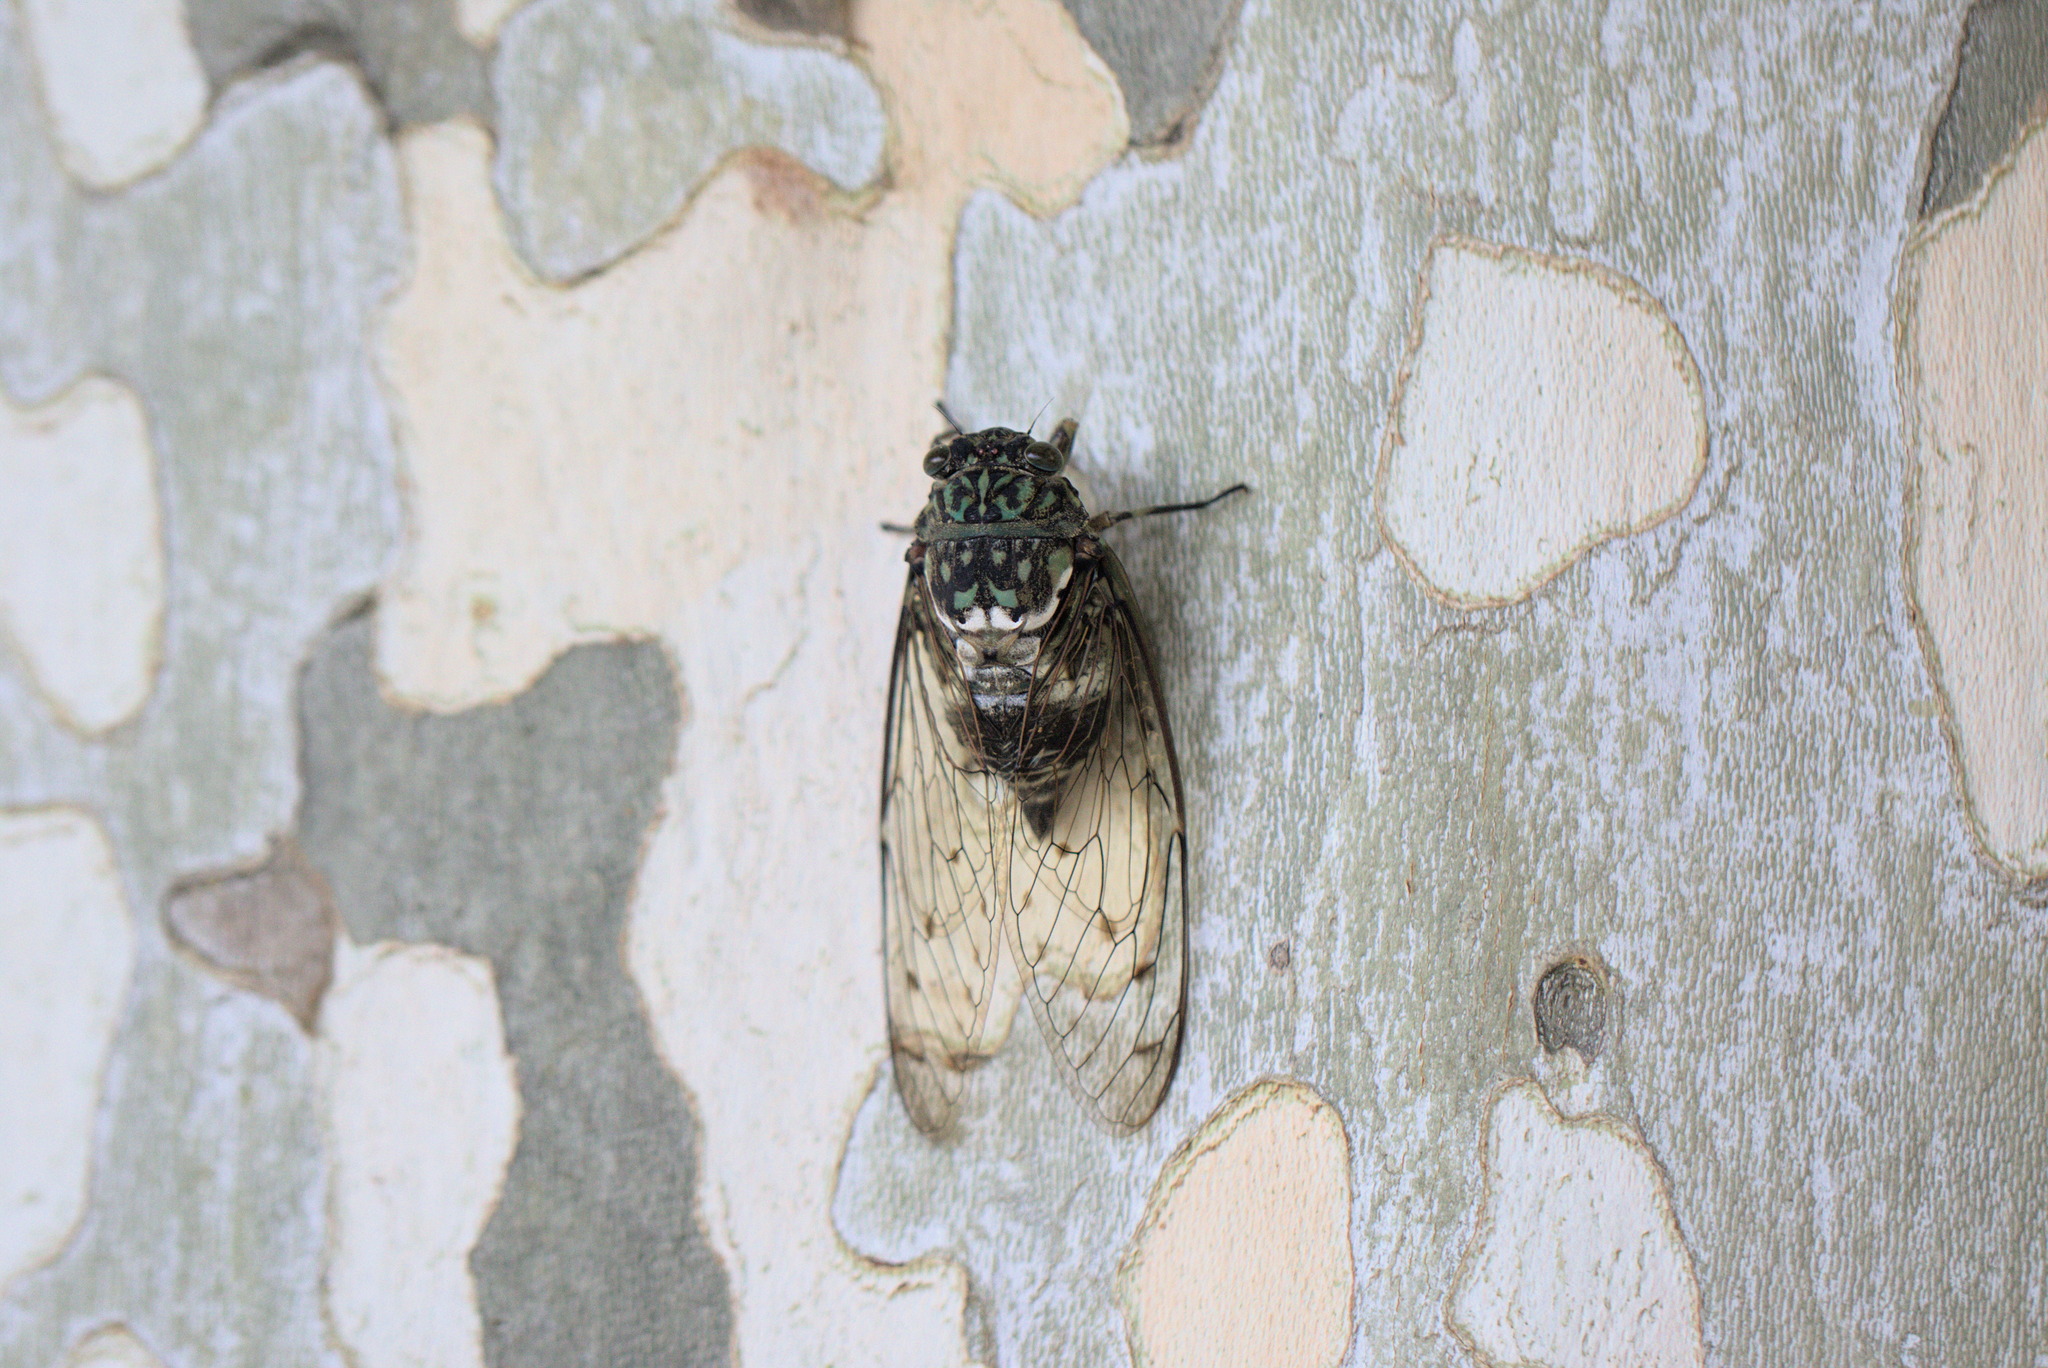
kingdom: Animalia
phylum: Arthropoda
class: Insecta
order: Hemiptera
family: Cicadidae
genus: Hyalessa
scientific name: Hyalessa maculaticollis
